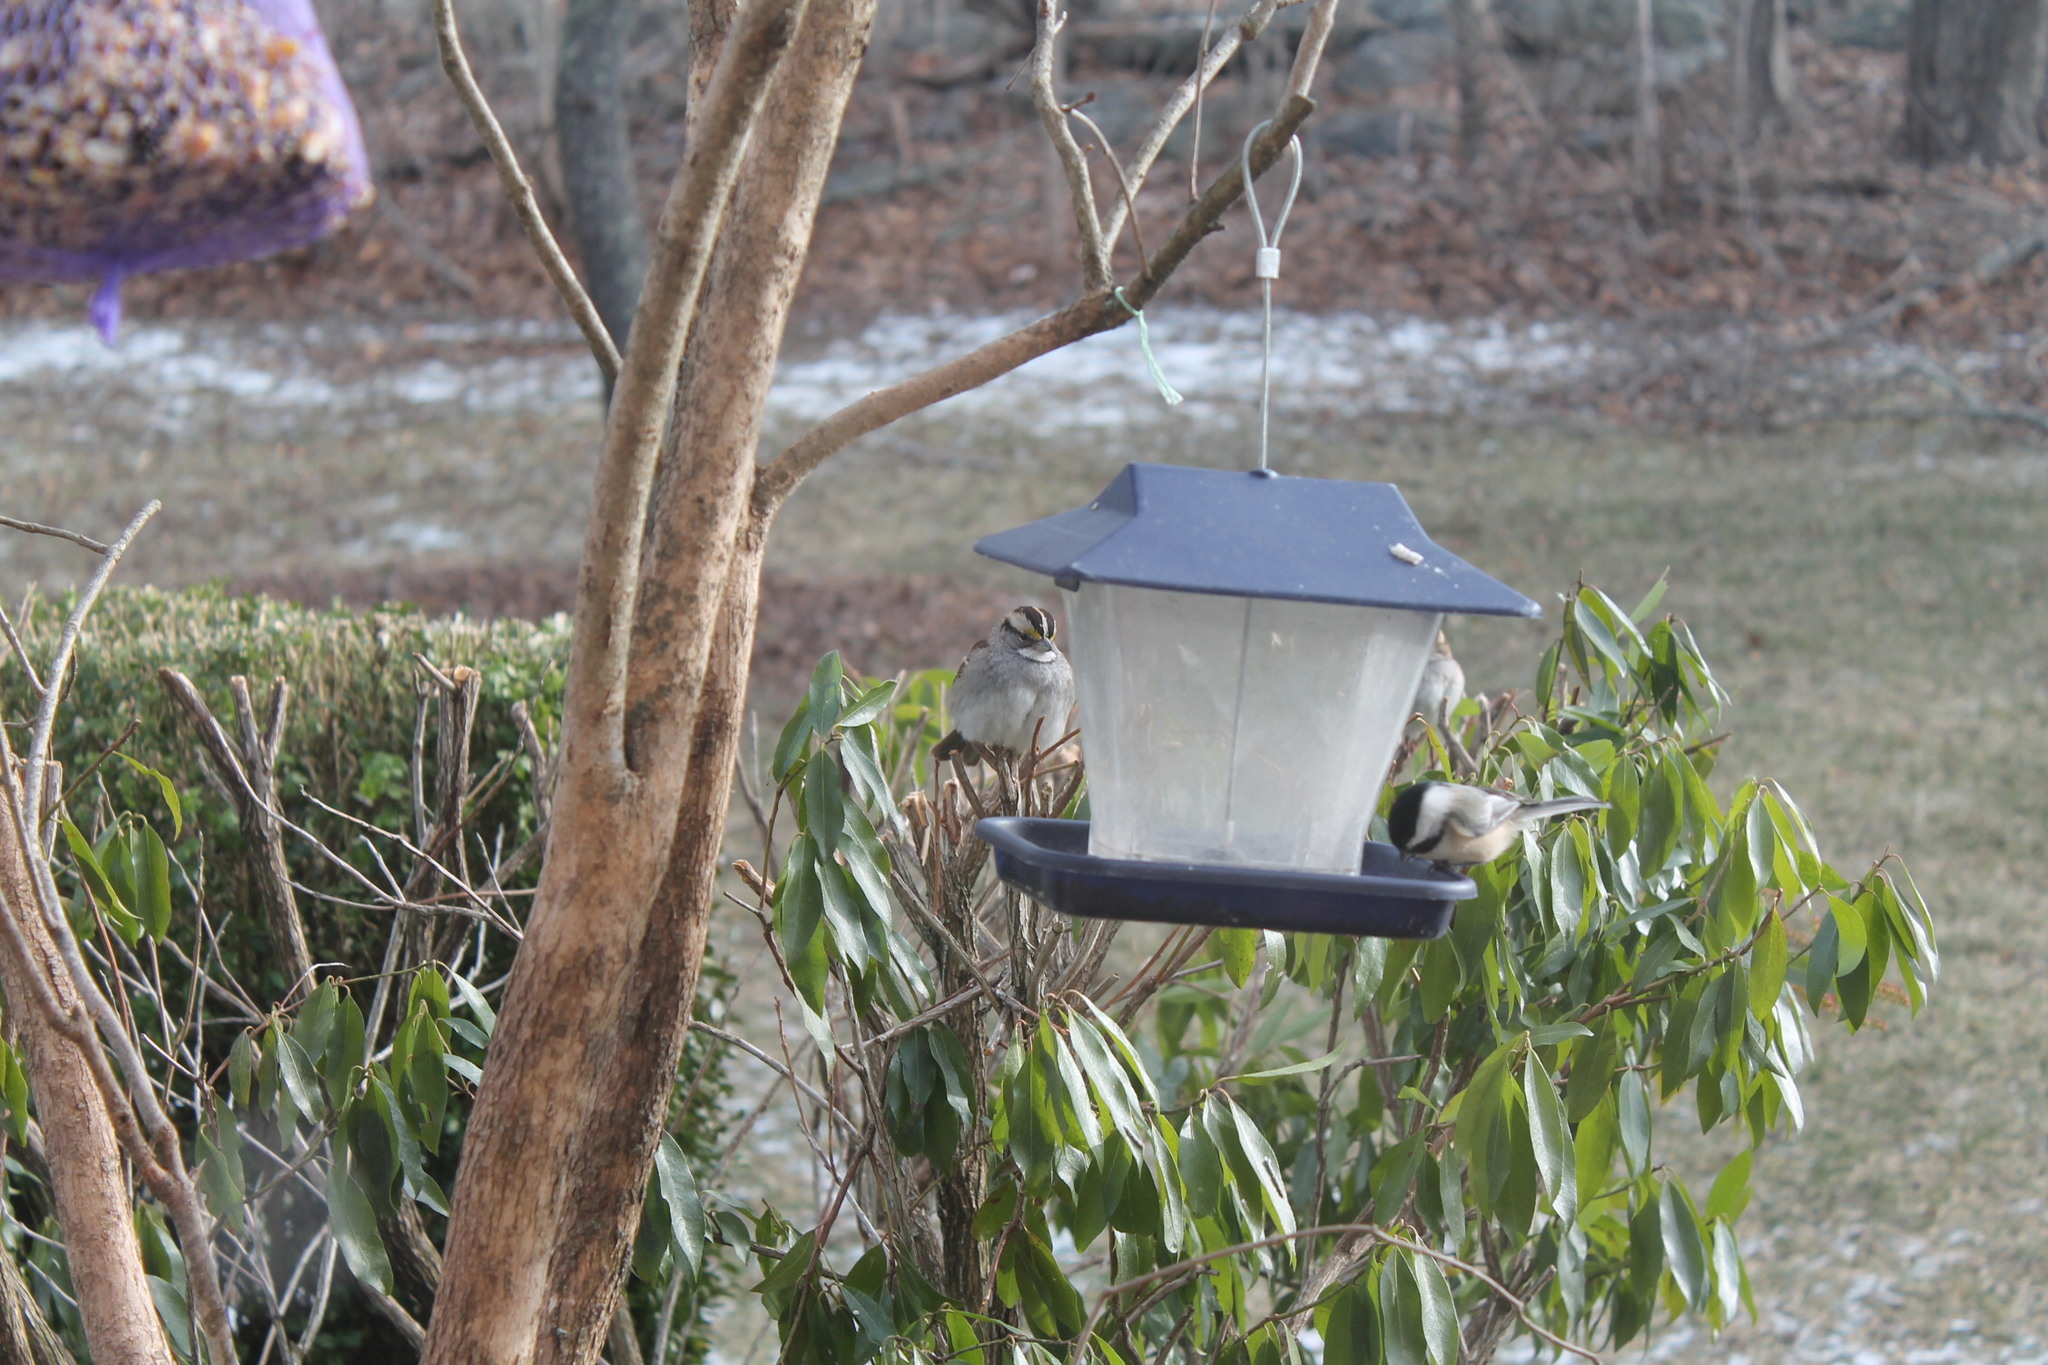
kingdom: Animalia
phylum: Chordata
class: Aves
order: Passeriformes
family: Passerellidae
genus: Zonotrichia
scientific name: Zonotrichia albicollis
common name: White-throated sparrow
